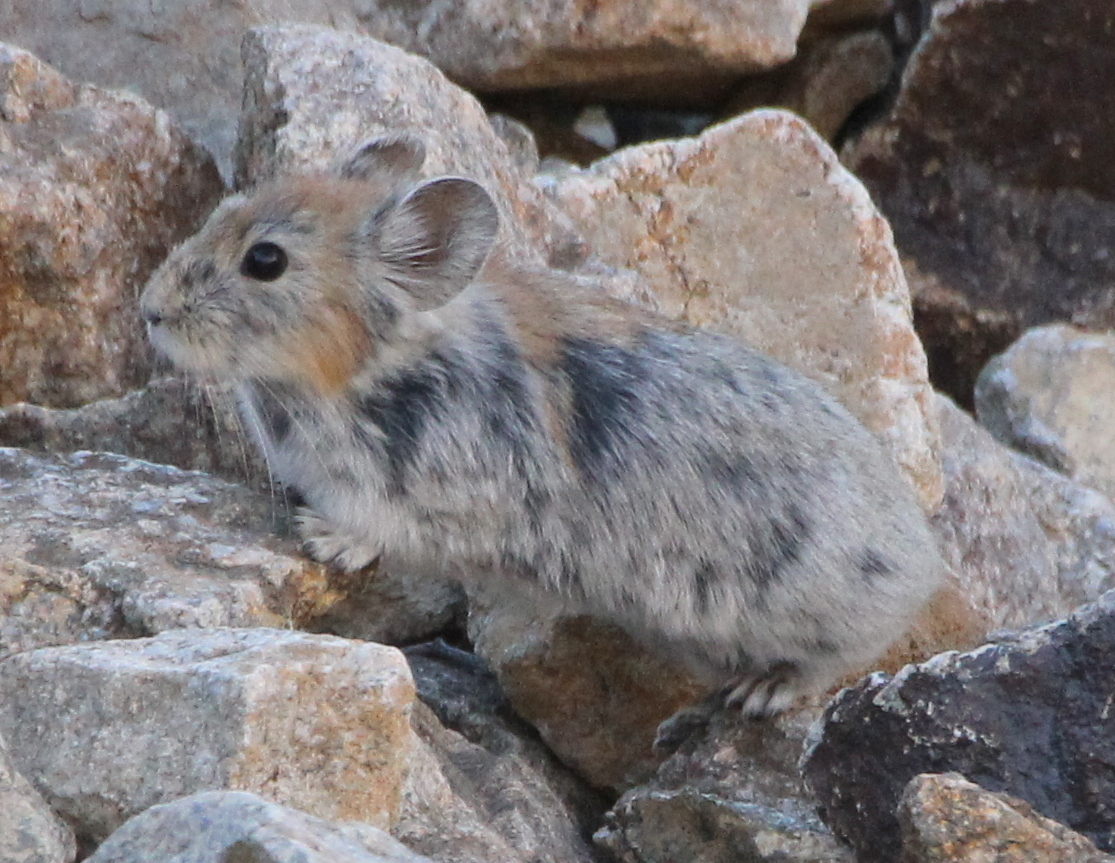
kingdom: Animalia
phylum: Chordata
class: Mammalia
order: Lagomorpha
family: Ochotonidae
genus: Ochotona
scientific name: Ochotona macrotis
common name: Large-eared pika
